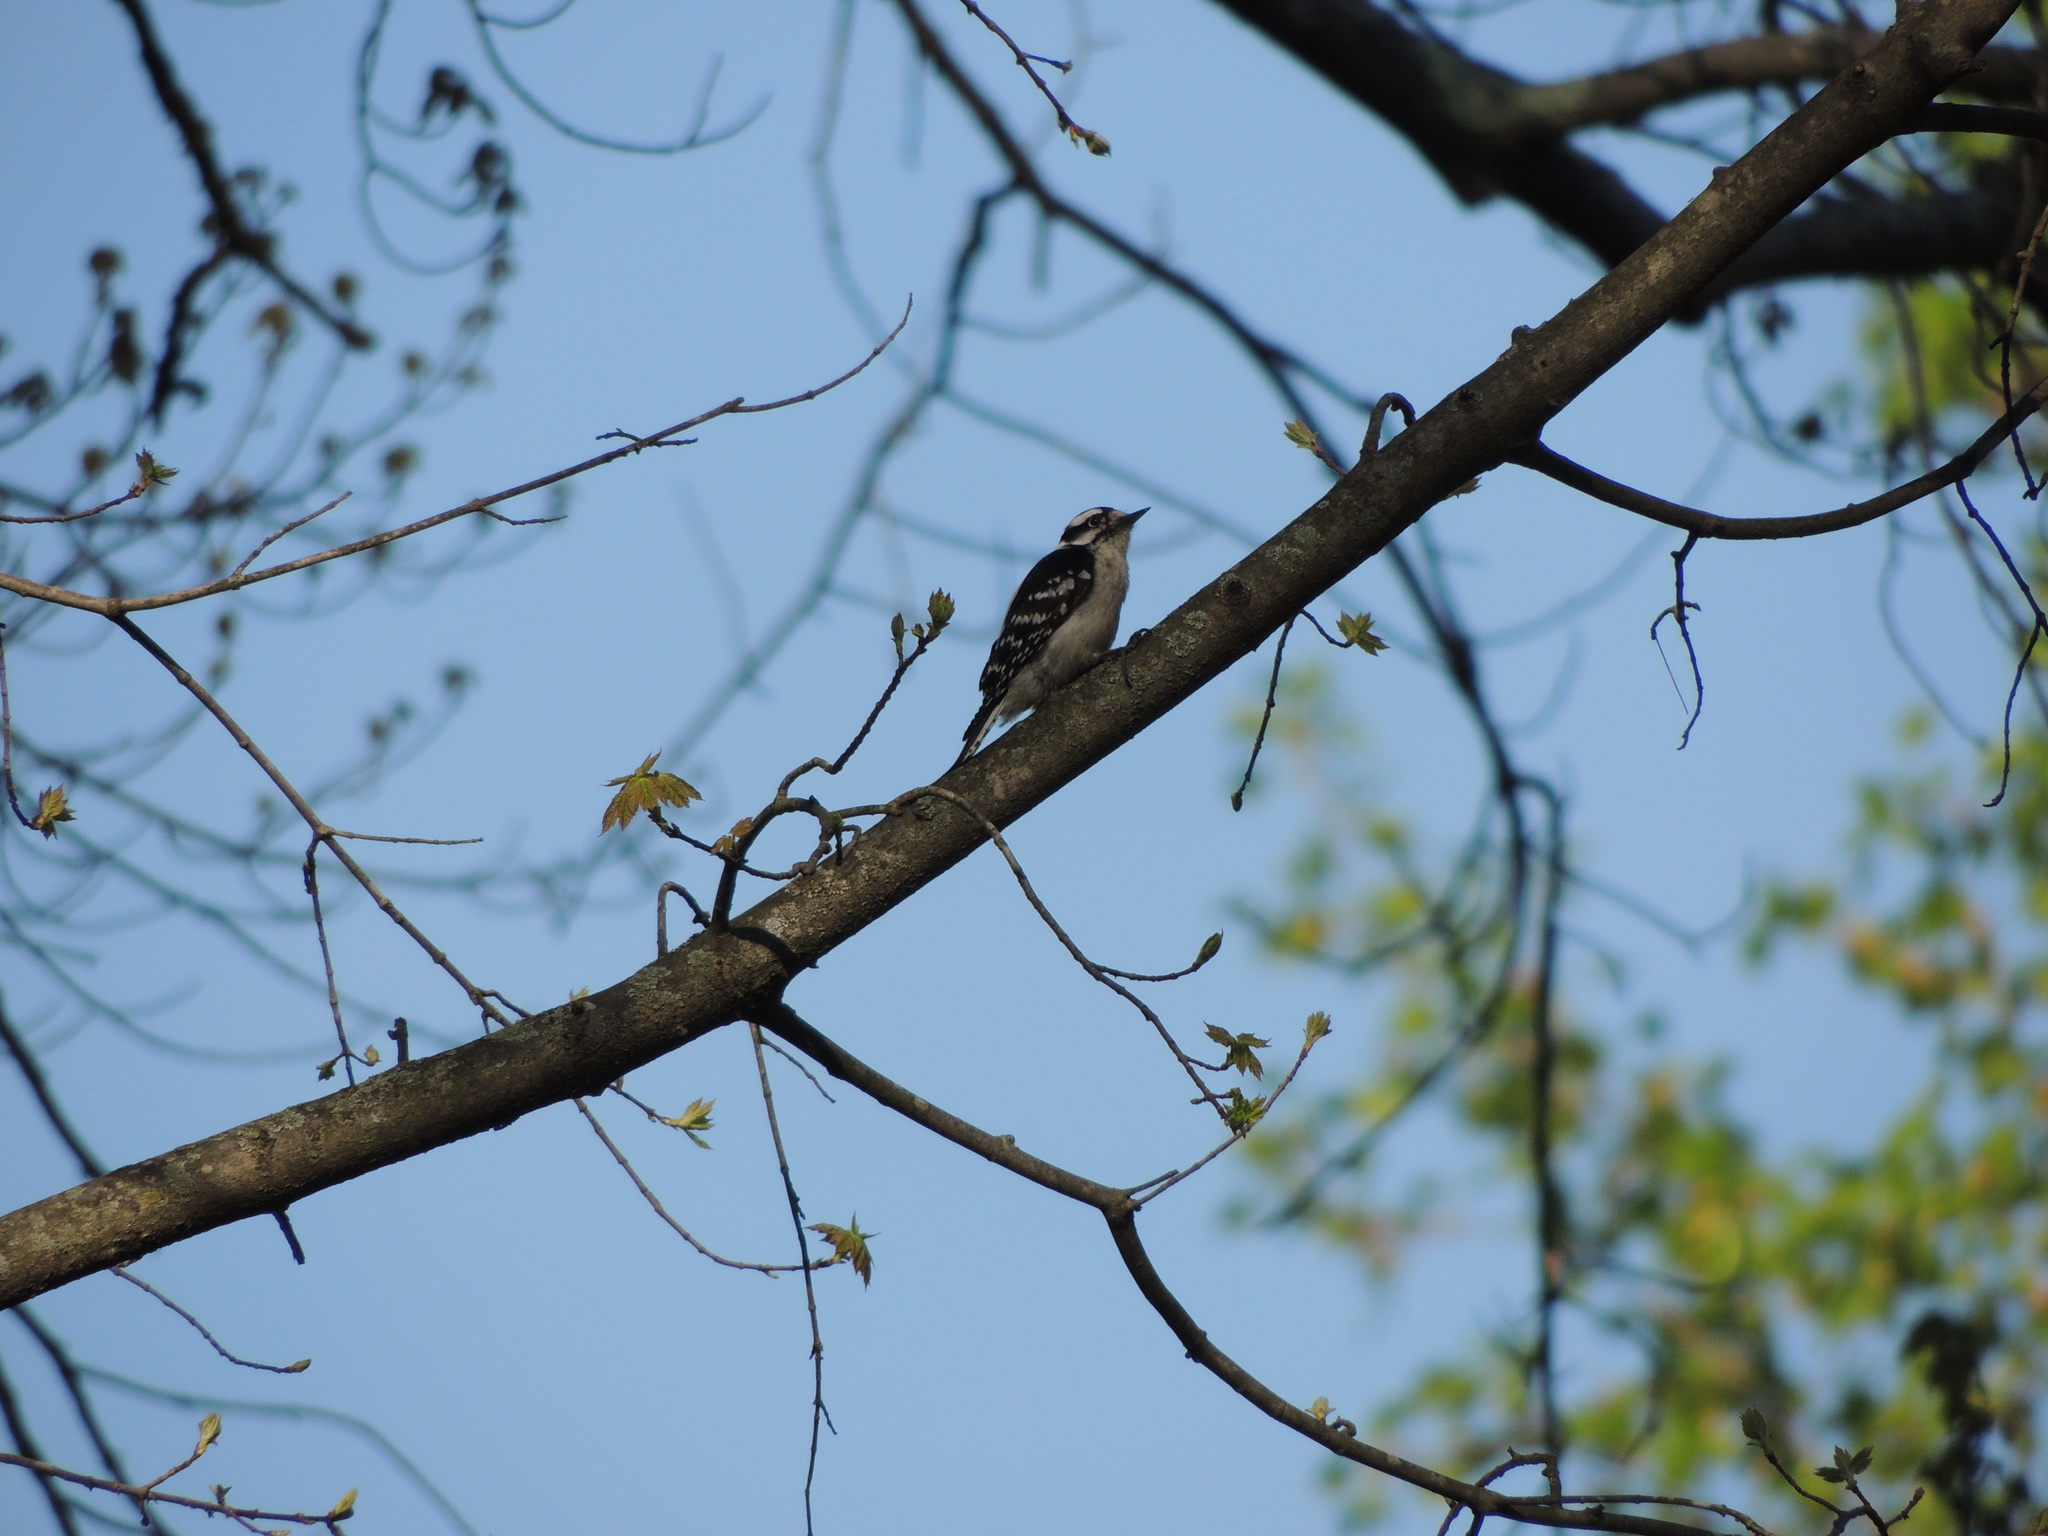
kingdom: Animalia
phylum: Chordata
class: Aves
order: Piciformes
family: Picidae
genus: Dryobates
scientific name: Dryobates pubescens
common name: Downy woodpecker
